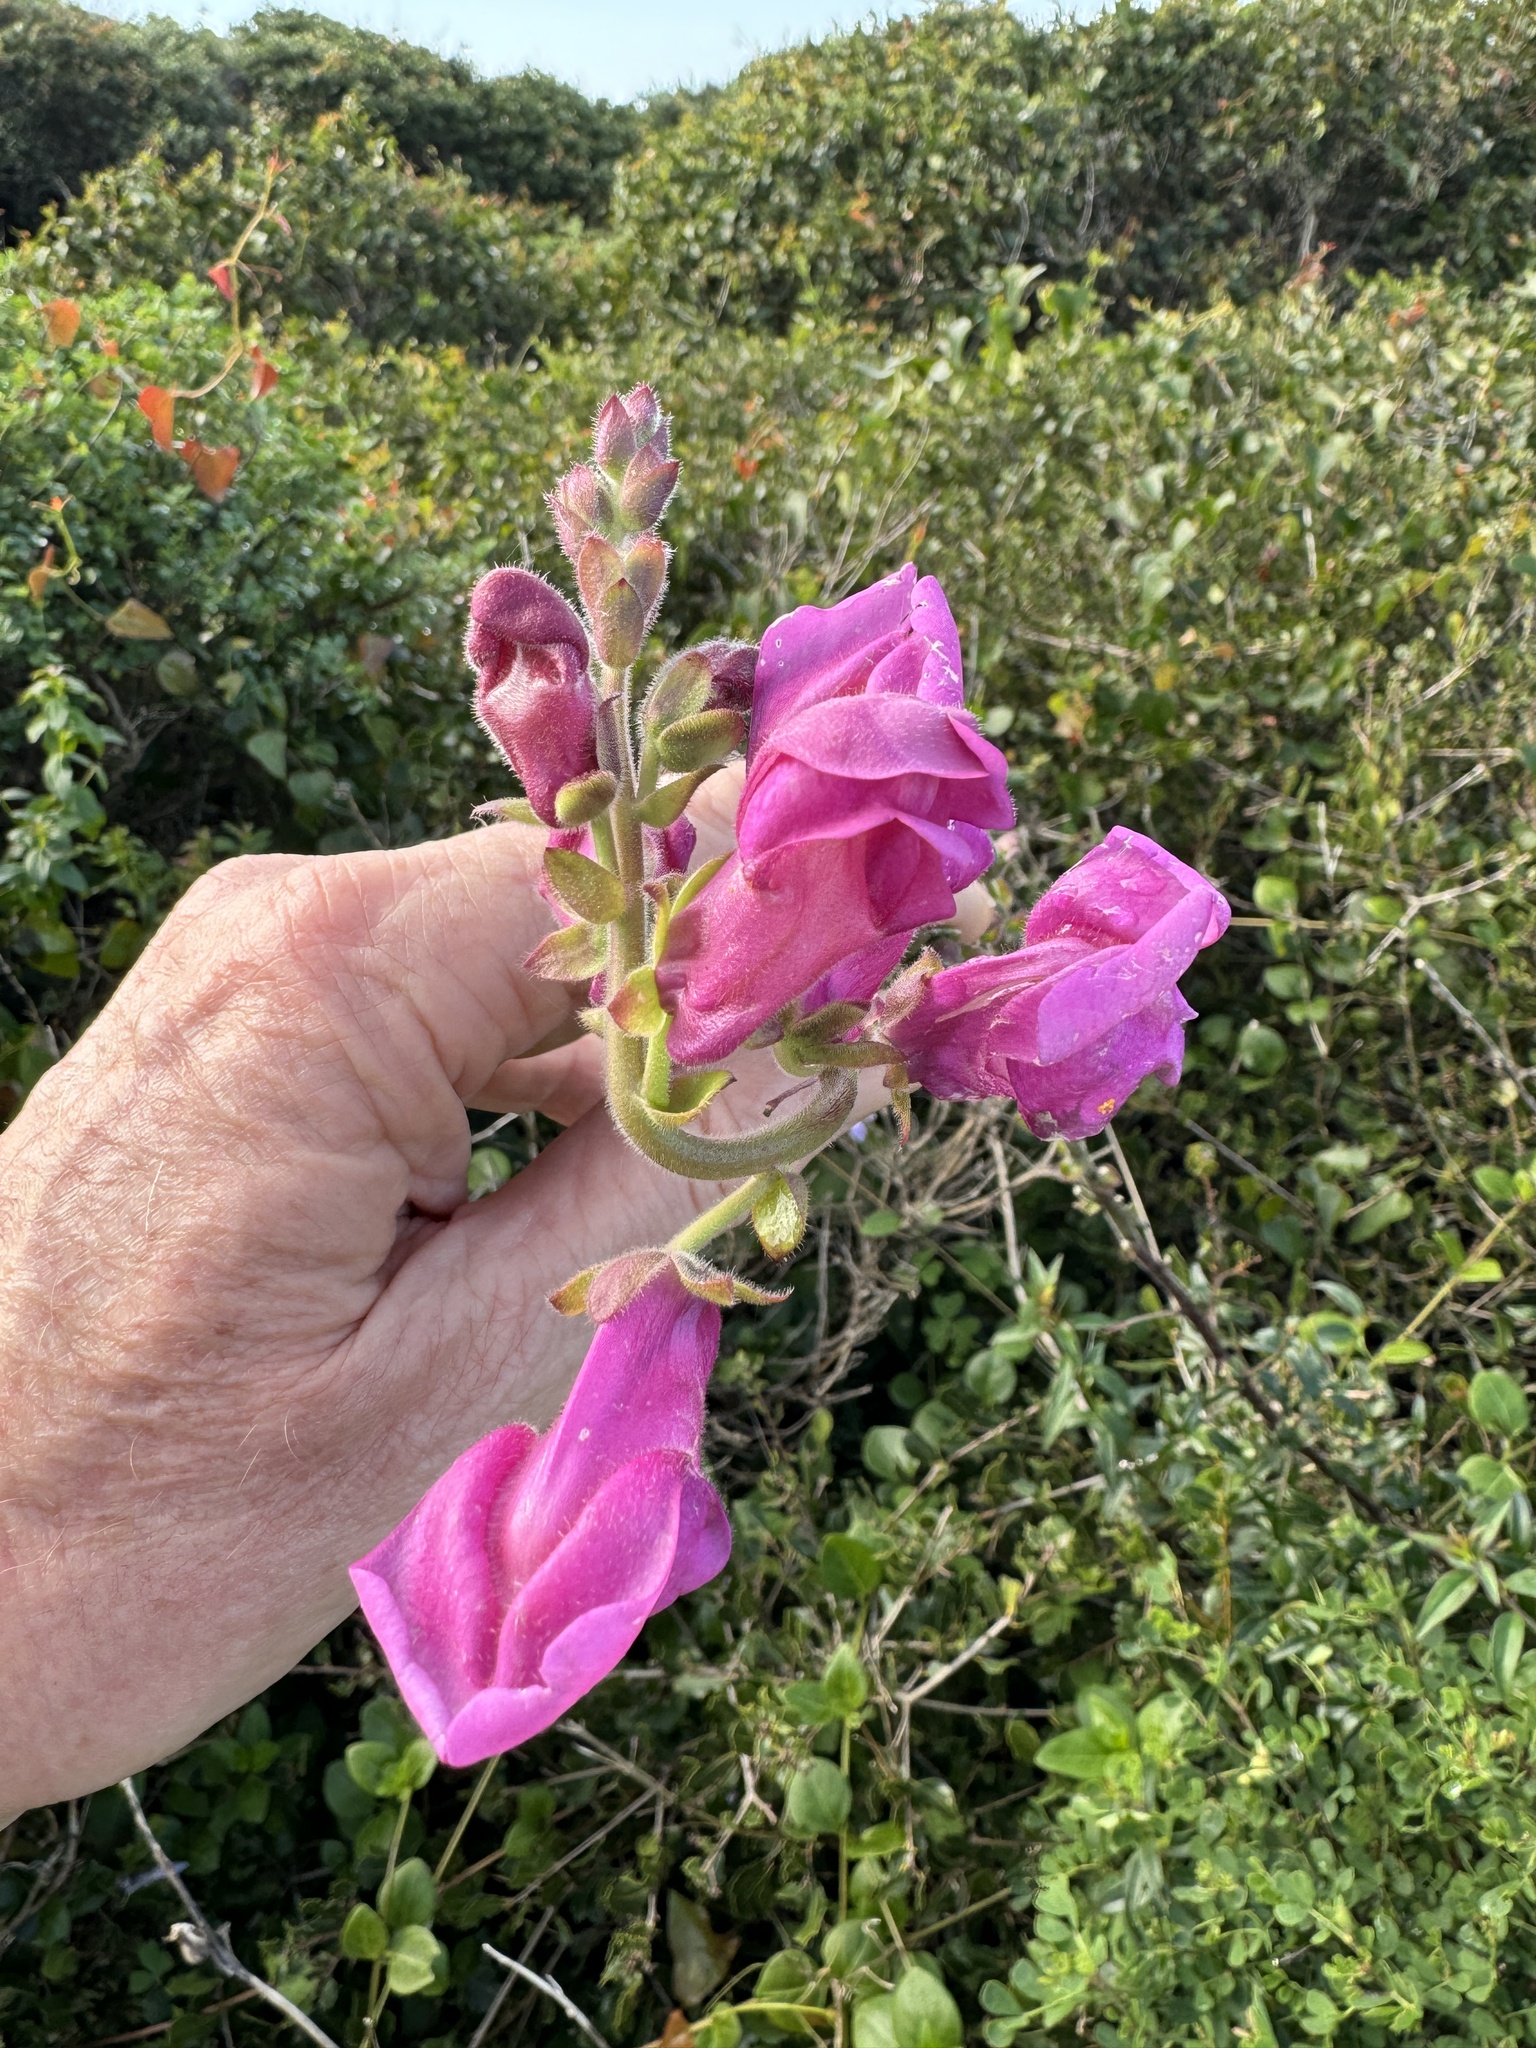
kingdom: Plantae
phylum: Tracheophyta
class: Magnoliopsida
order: Lamiales
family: Plantaginaceae
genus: Antirrhinum
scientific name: Antirrhinum linkianum
